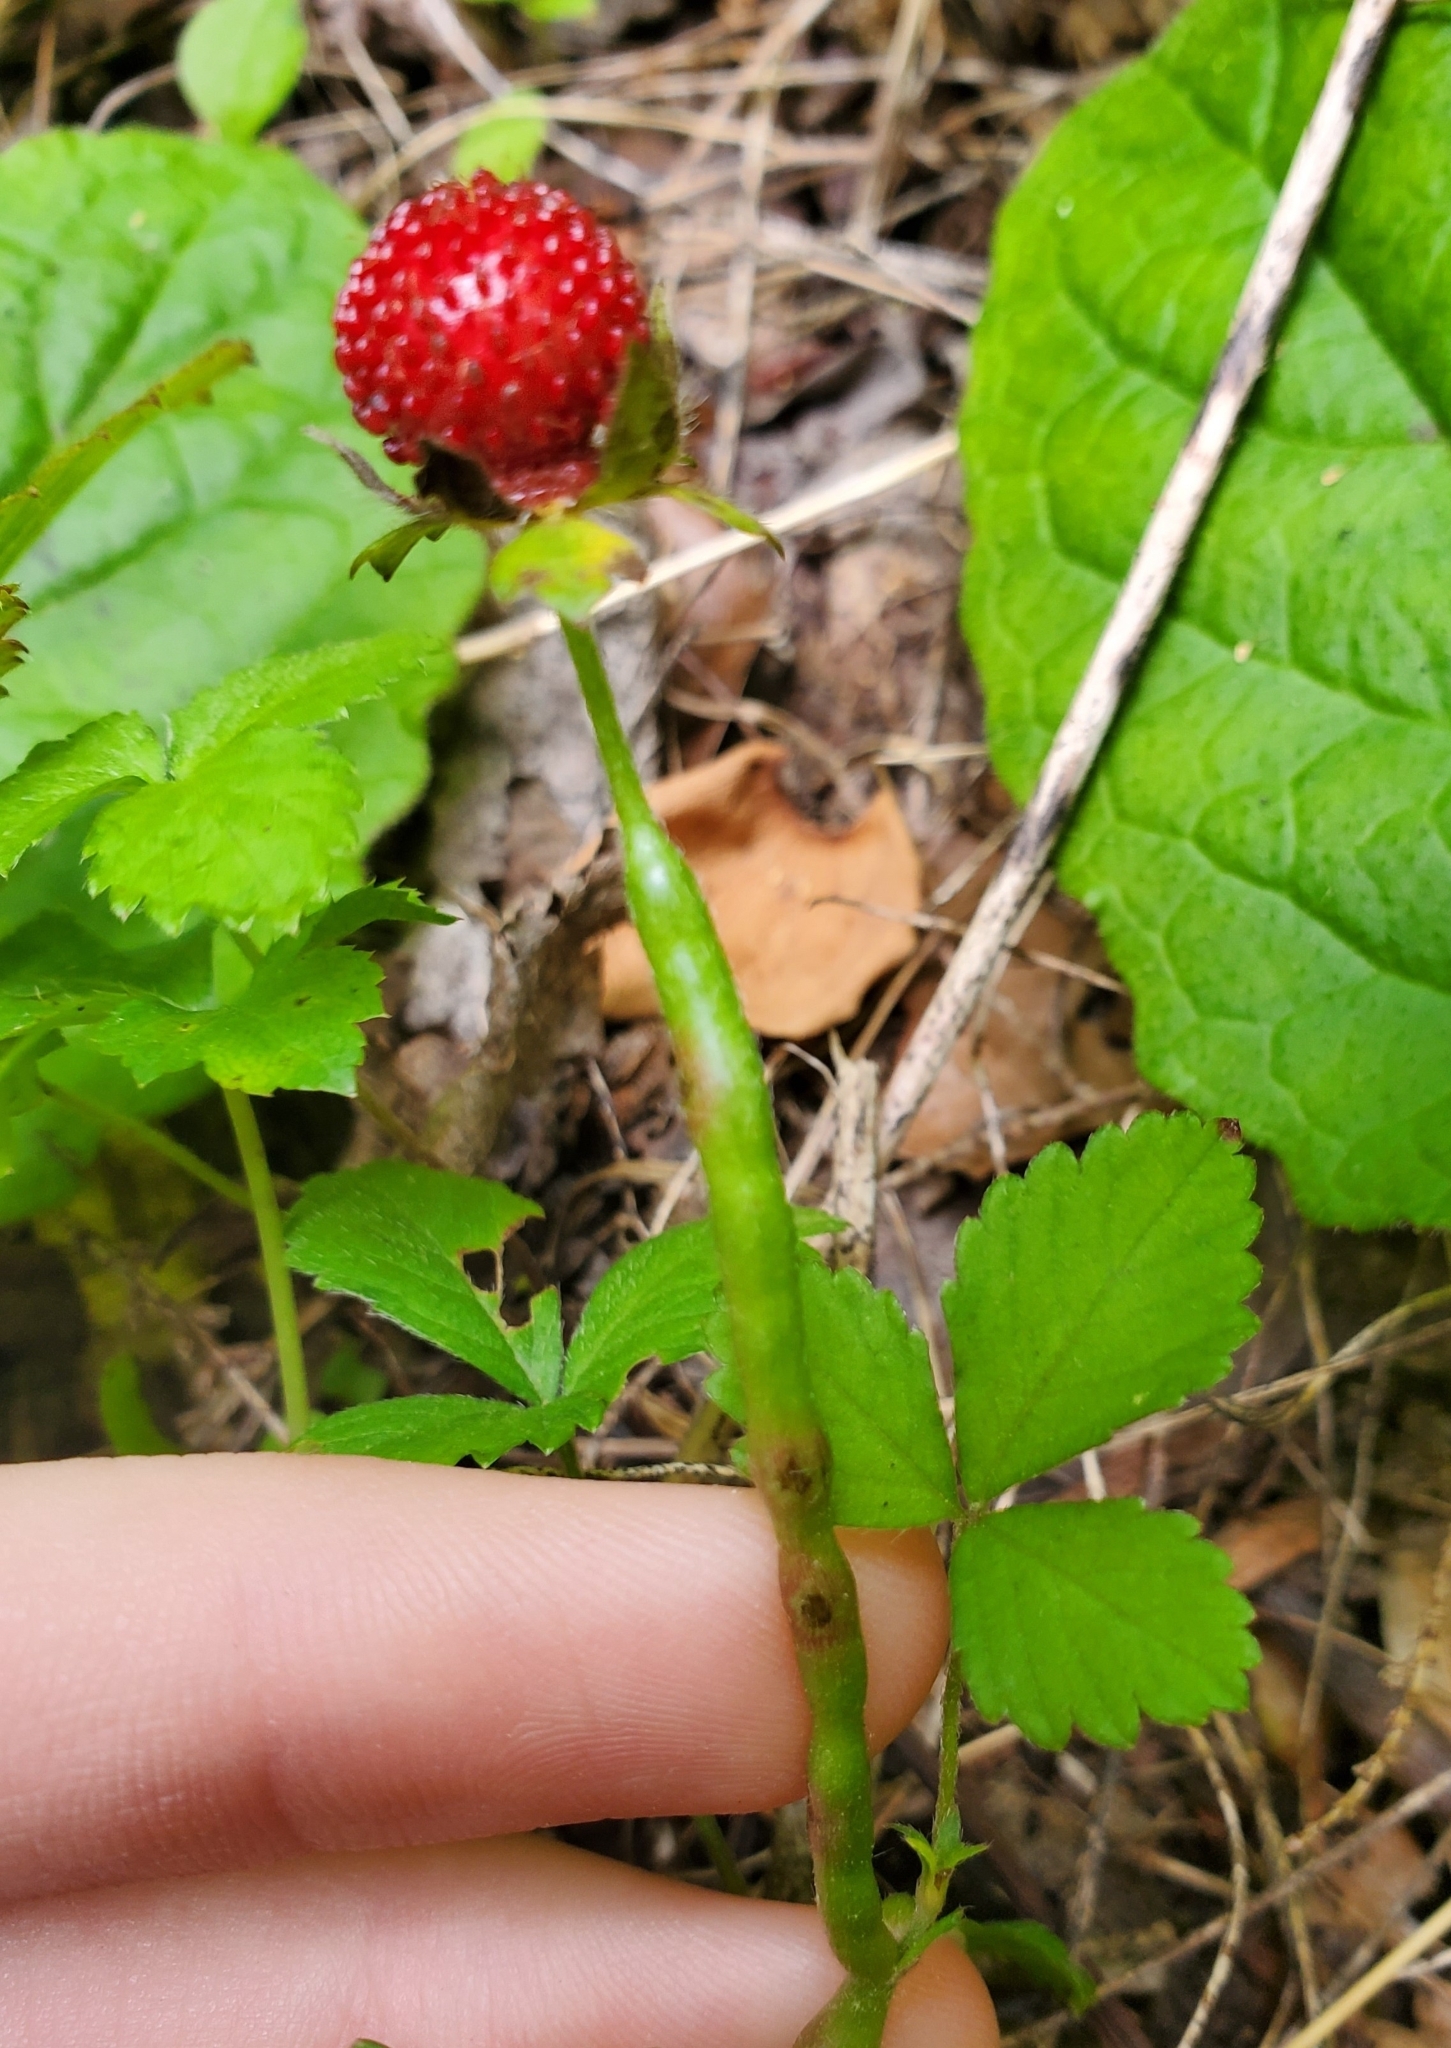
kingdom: Plantae
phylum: Tracheophyta
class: Magnoliopsida
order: Rosales
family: Rosaceae
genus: Potentilla
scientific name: Potentilla indica
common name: Yellow-flowered strawberry
